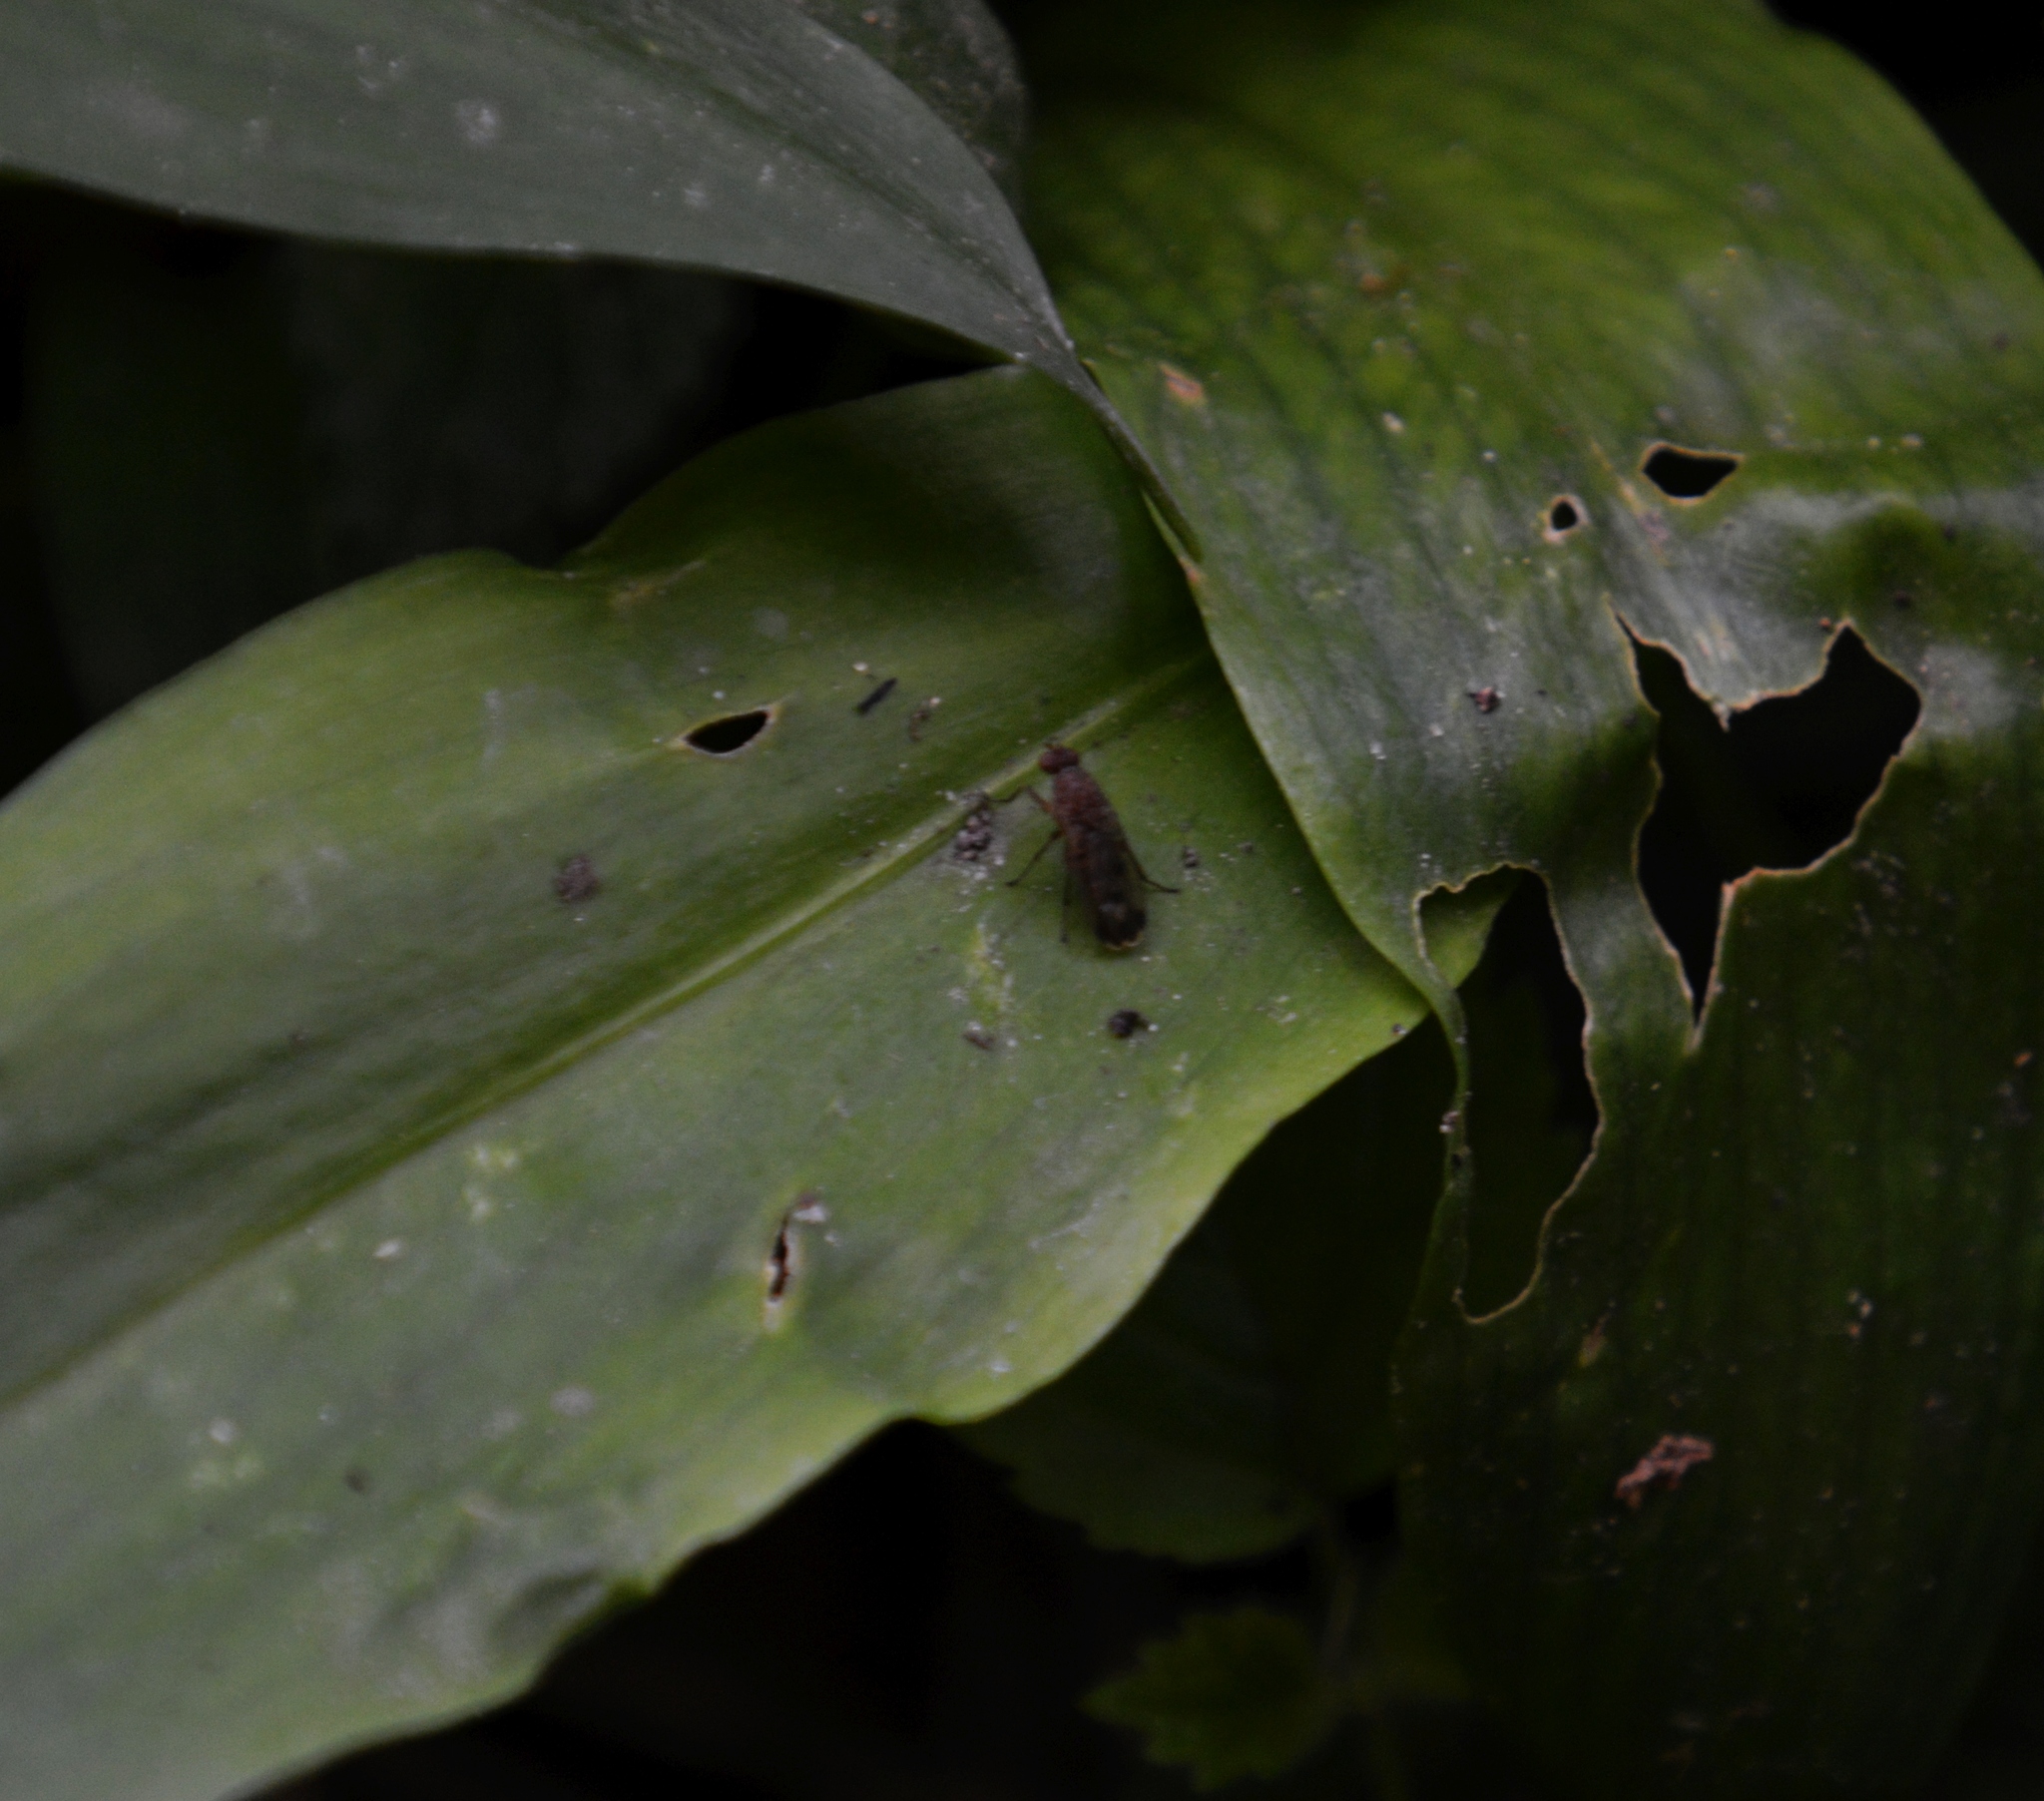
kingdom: Animalia
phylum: Arthropoda
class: Insecta
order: Diptera
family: Heleomyzidae
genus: Suillia
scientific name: Suillia variegata
